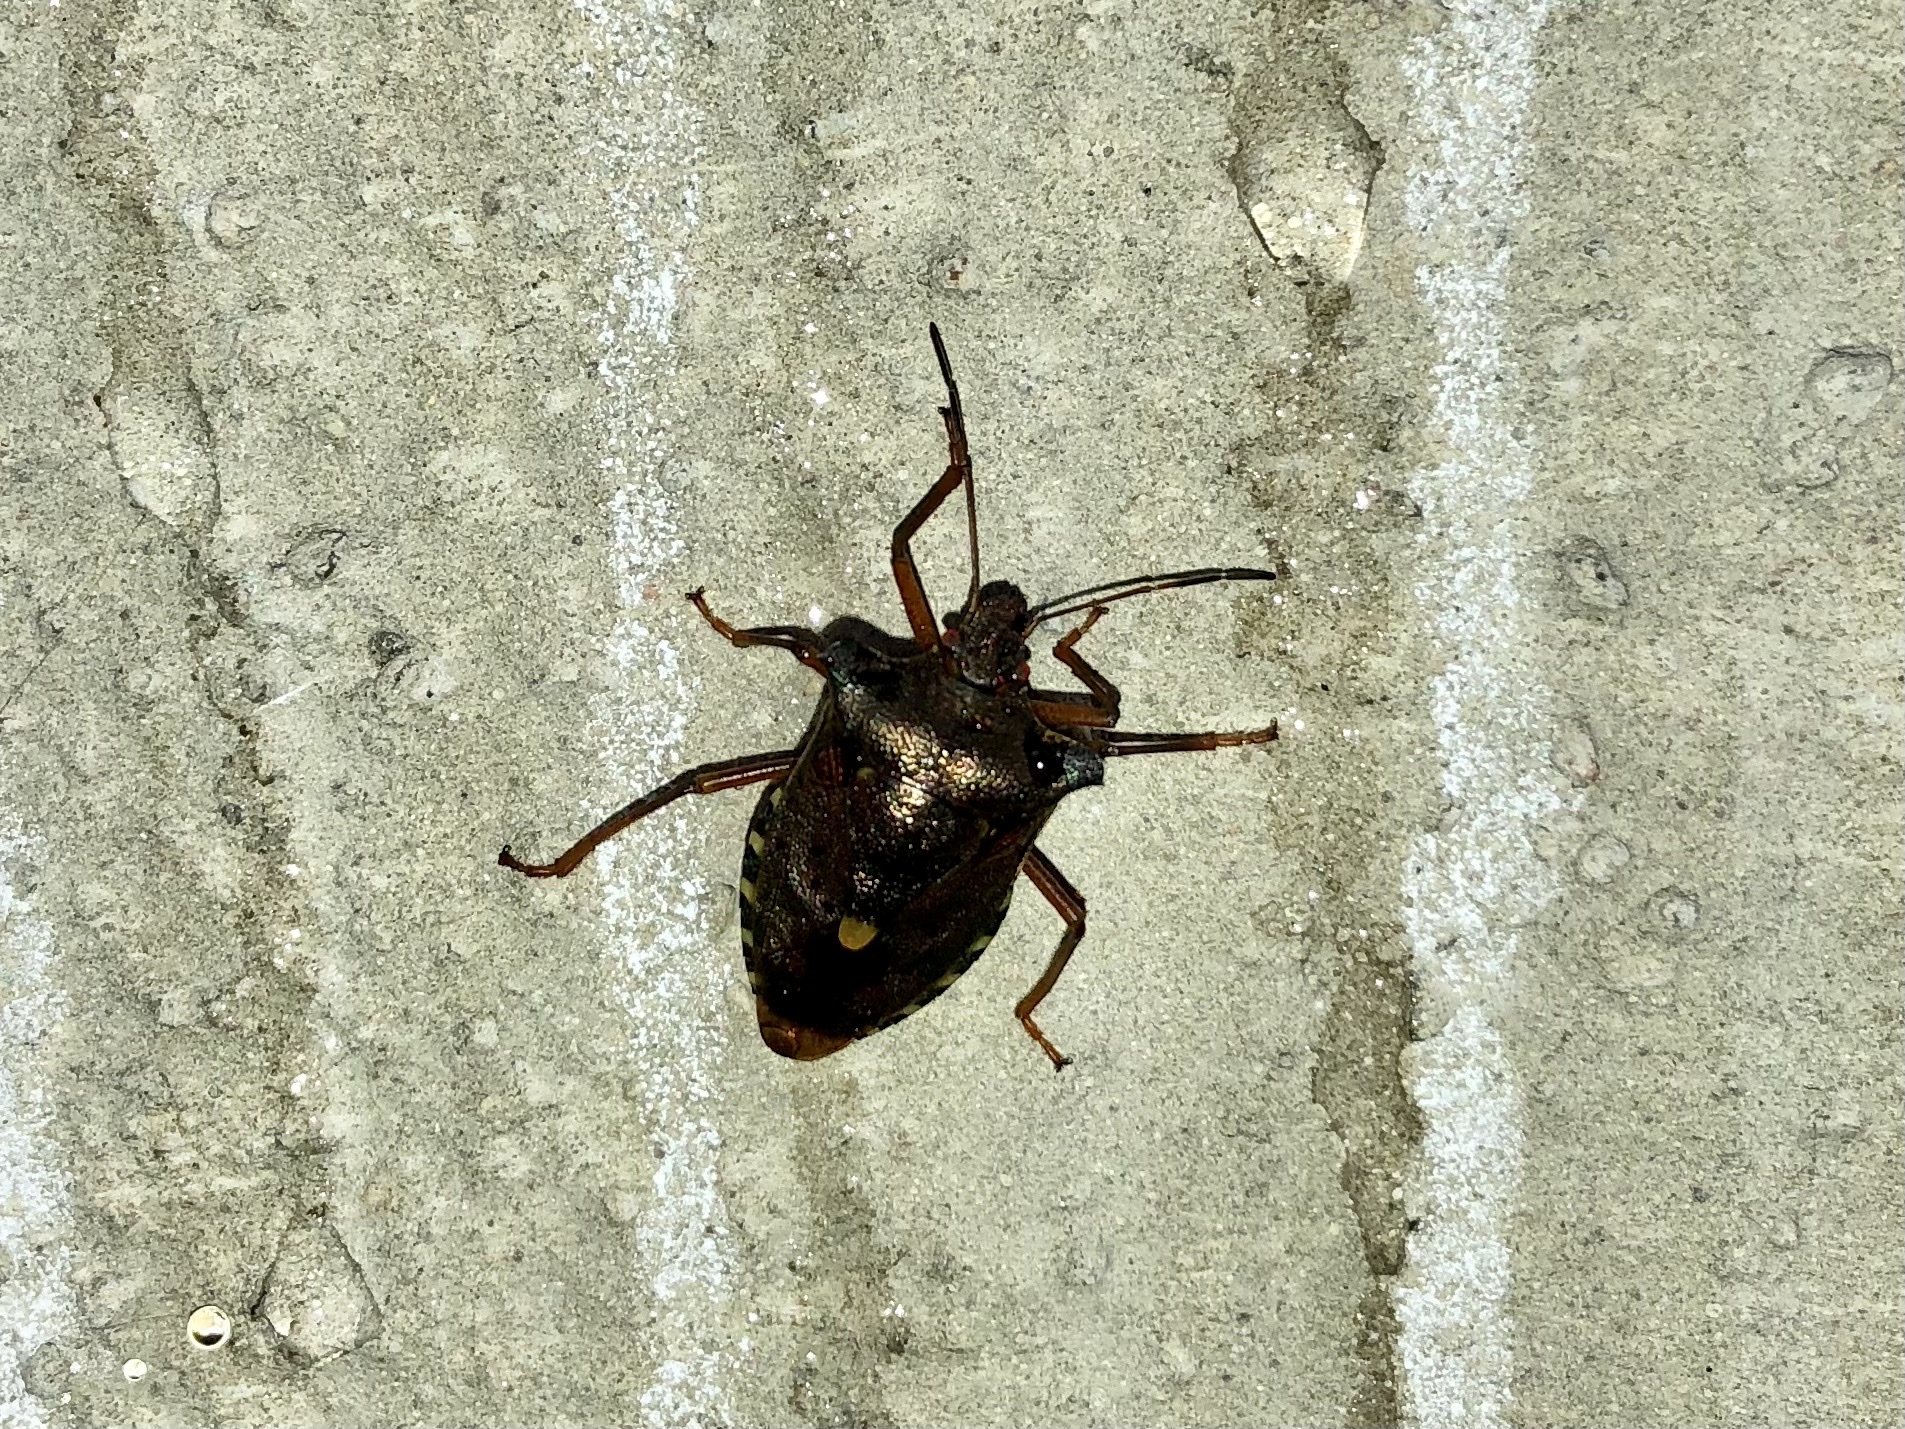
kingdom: Animalia
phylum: Arthropoda
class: Insecta
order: Hemiptera
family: Pentatomidae
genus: Pentatoma
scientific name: Pentatoma rufipes
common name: Forest bug
